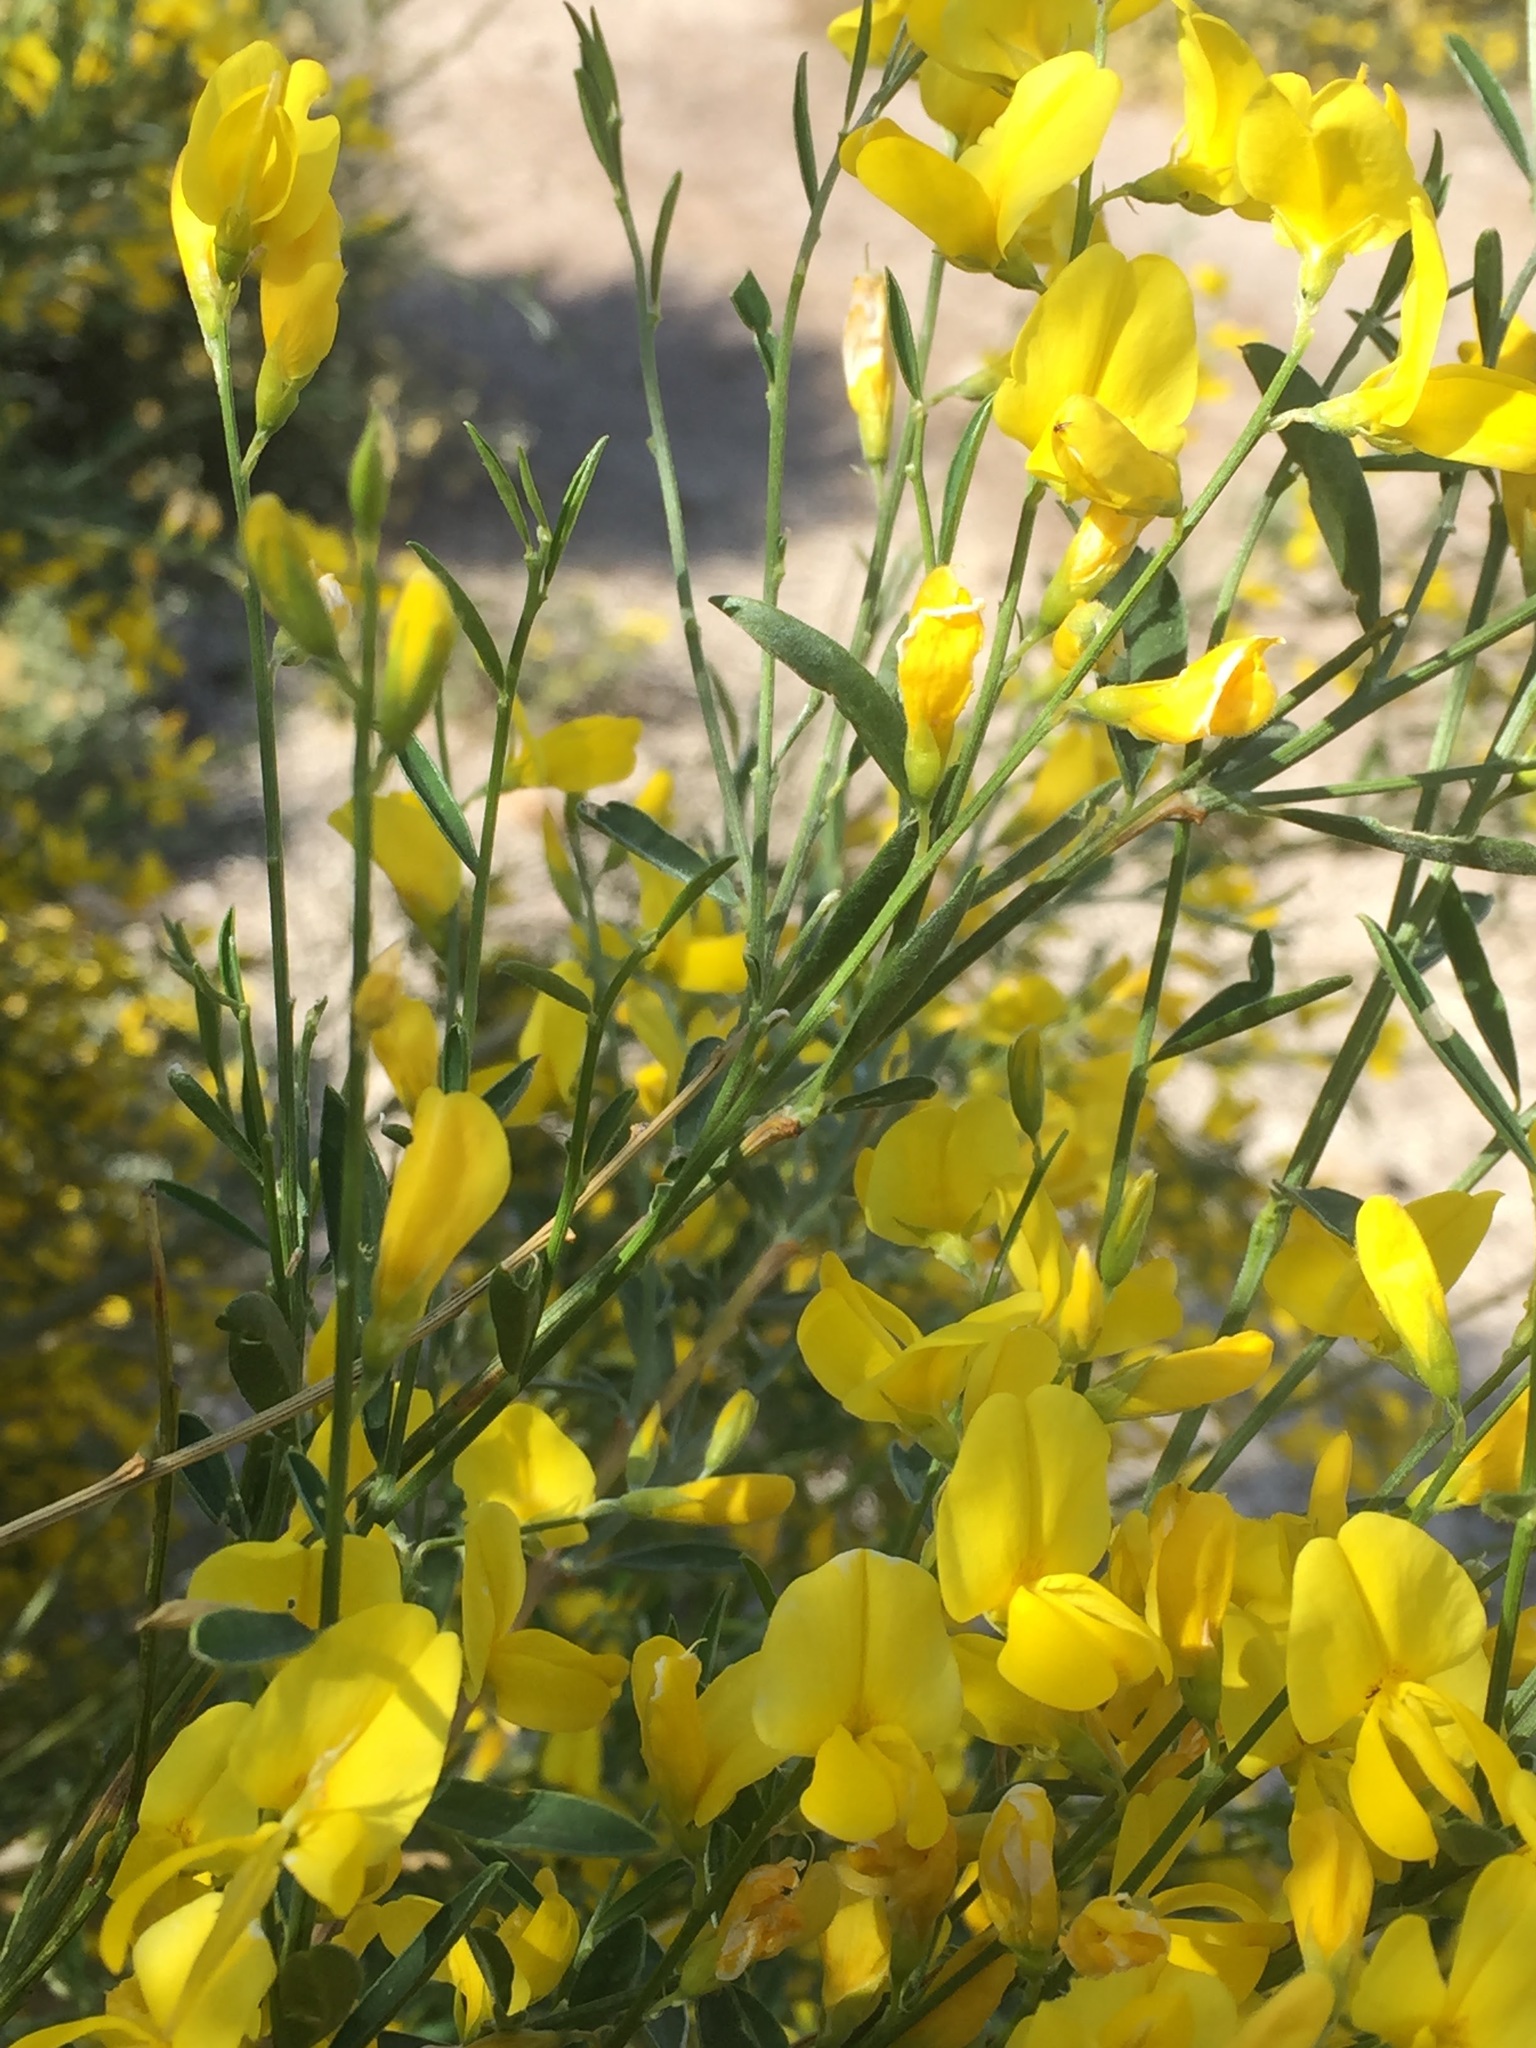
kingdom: Plantae
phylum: Tracheophyta
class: Magnoliopsida
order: Fabales
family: Fabaceae
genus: Genista
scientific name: Genista florida
